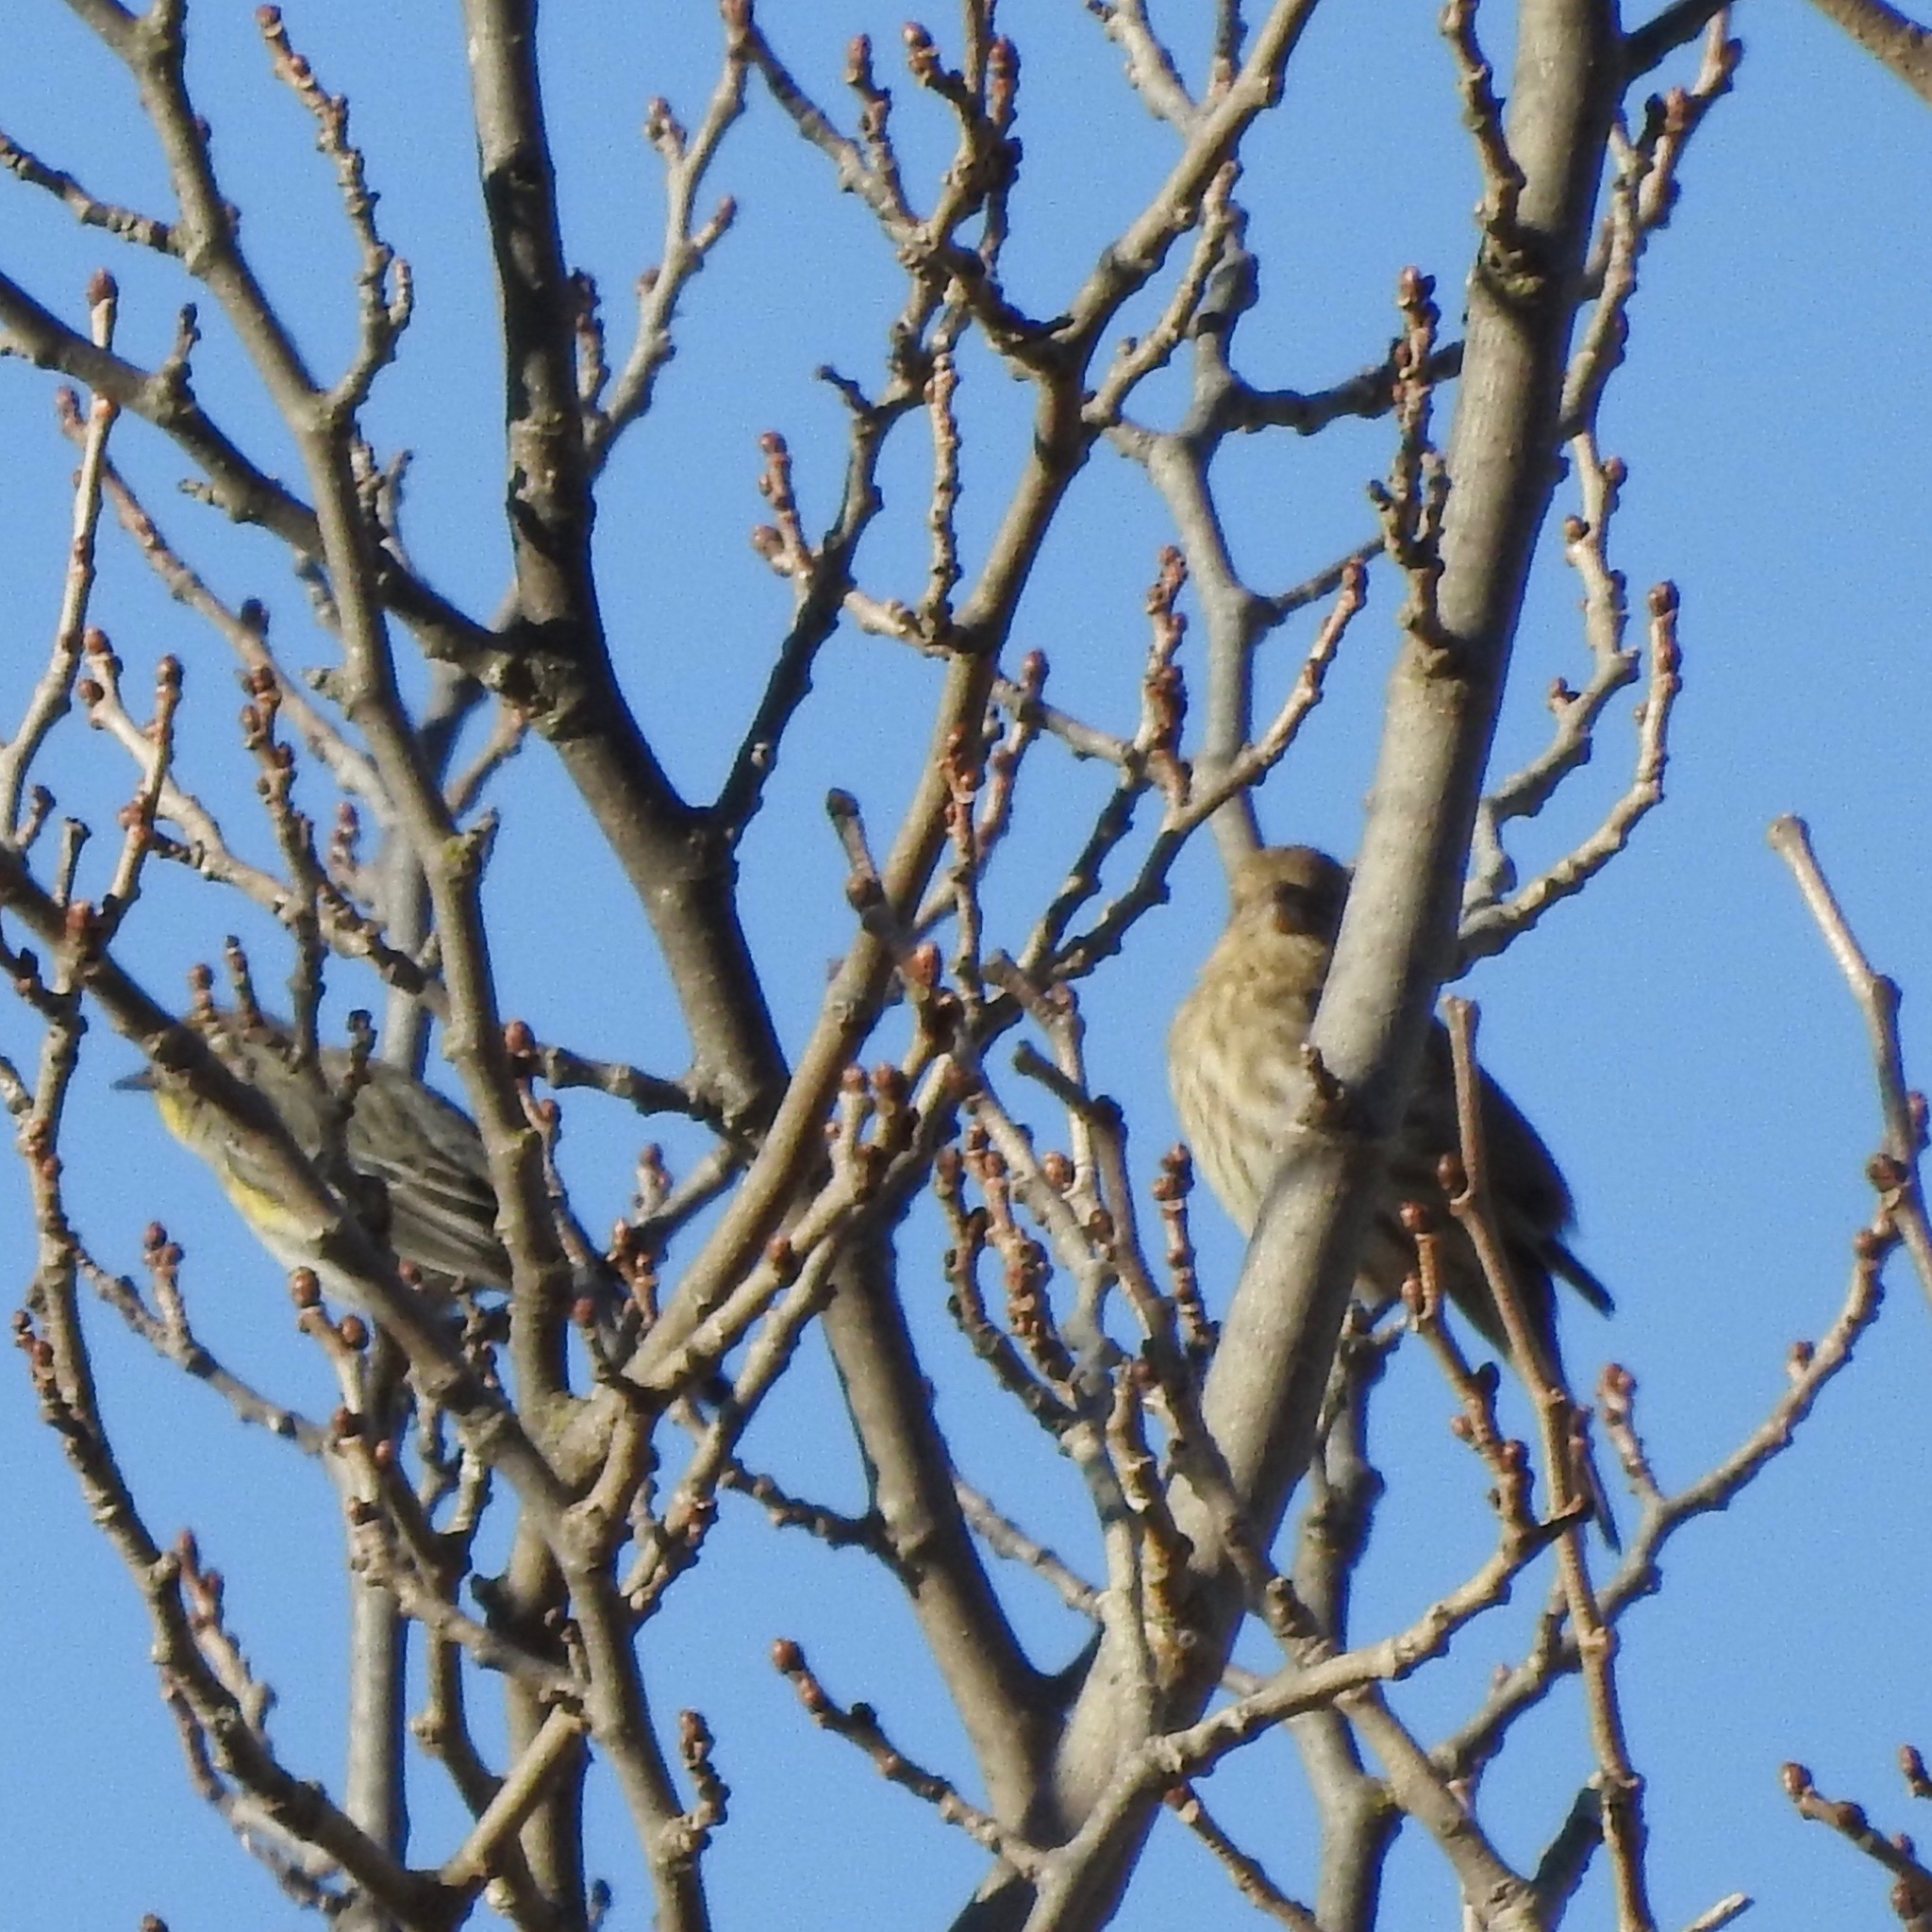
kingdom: Animalia
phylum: Chordata
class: Aves
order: Passeriformes
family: Parulidae
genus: Setophaga
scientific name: Setophaga coronata
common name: Myrtle warbler
